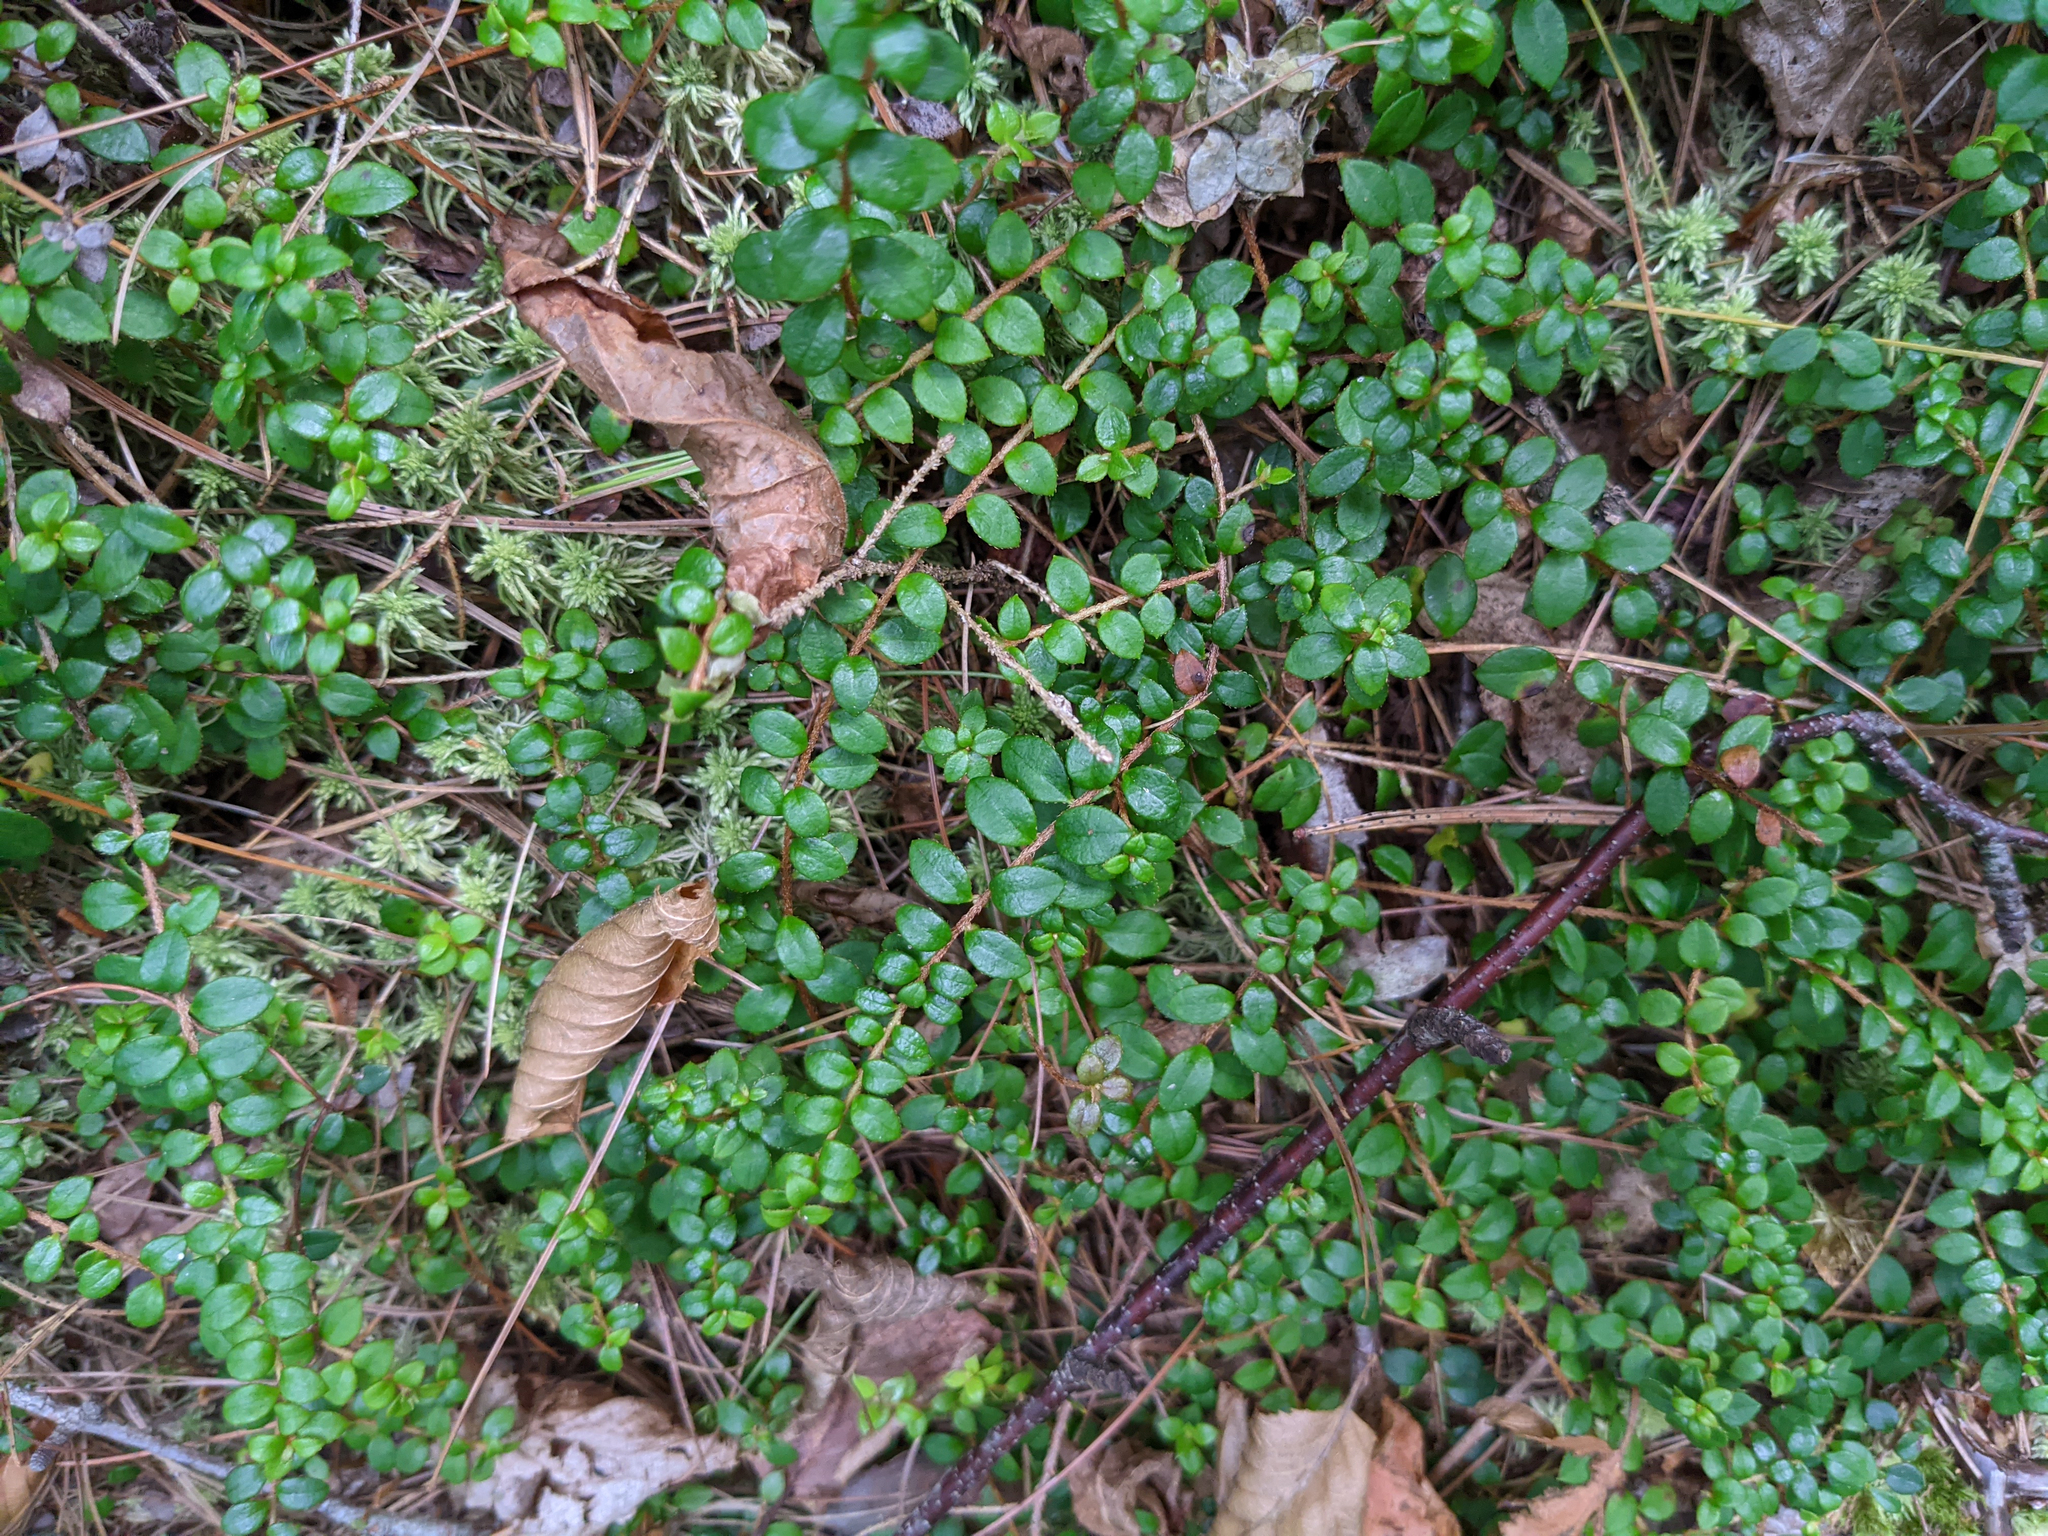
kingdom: Plantae
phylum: Tracheophyta
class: Magnoliopsida
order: Ericales
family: Ericaceae
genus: Gaultheria
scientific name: Gaultheria hispidula
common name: Cancer wintergreen
